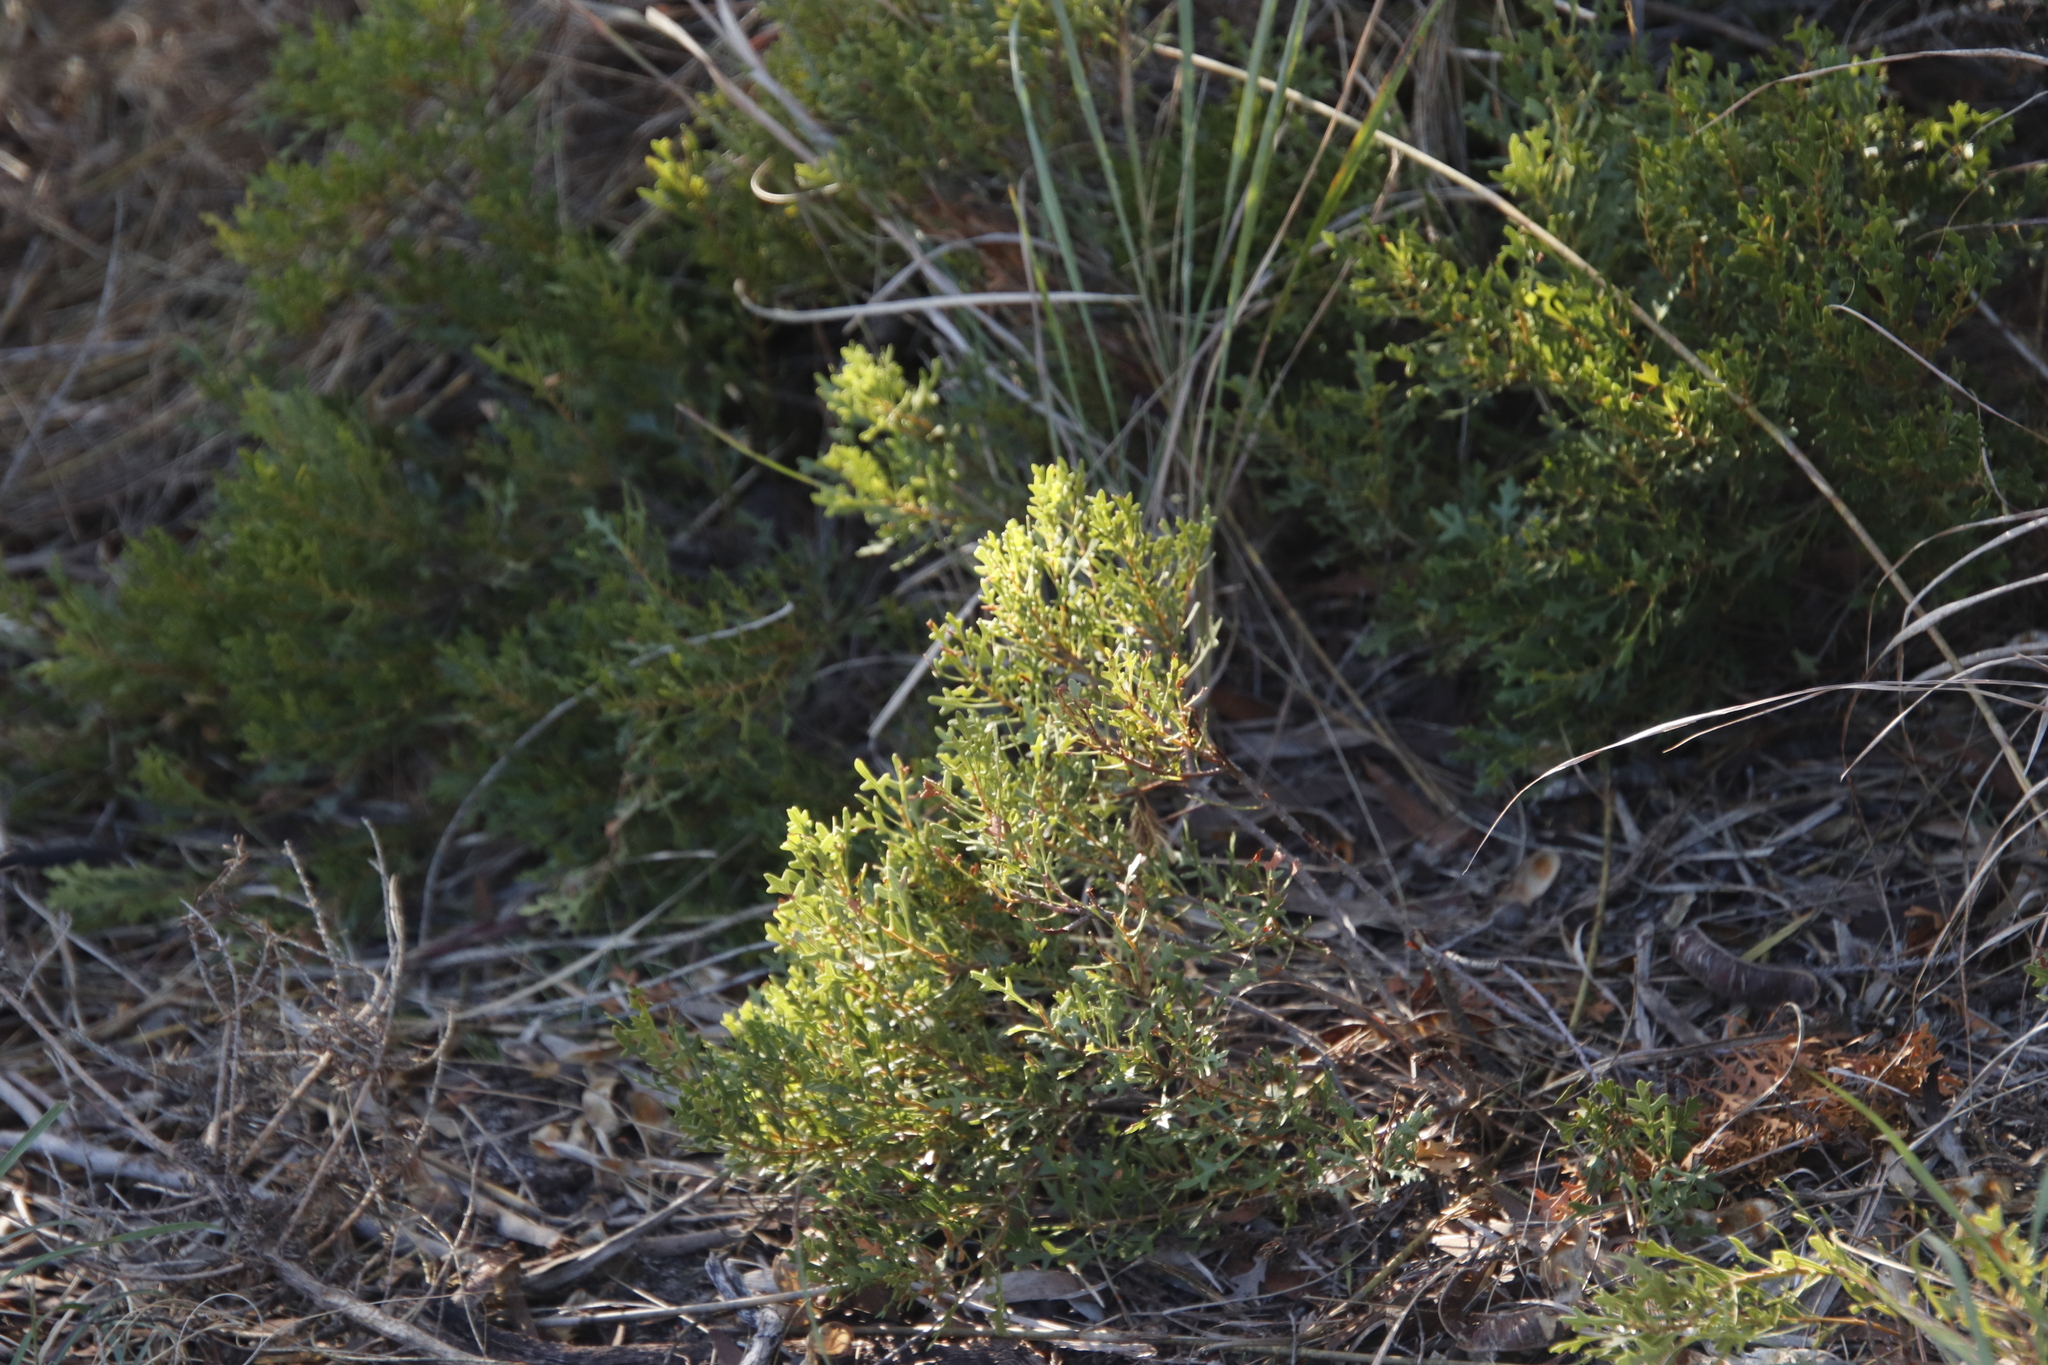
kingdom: Plantae
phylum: Tracheophyta
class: Magnoliopsida
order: Fagales
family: Myricaceae
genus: Morella
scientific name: Morella quercifolia
